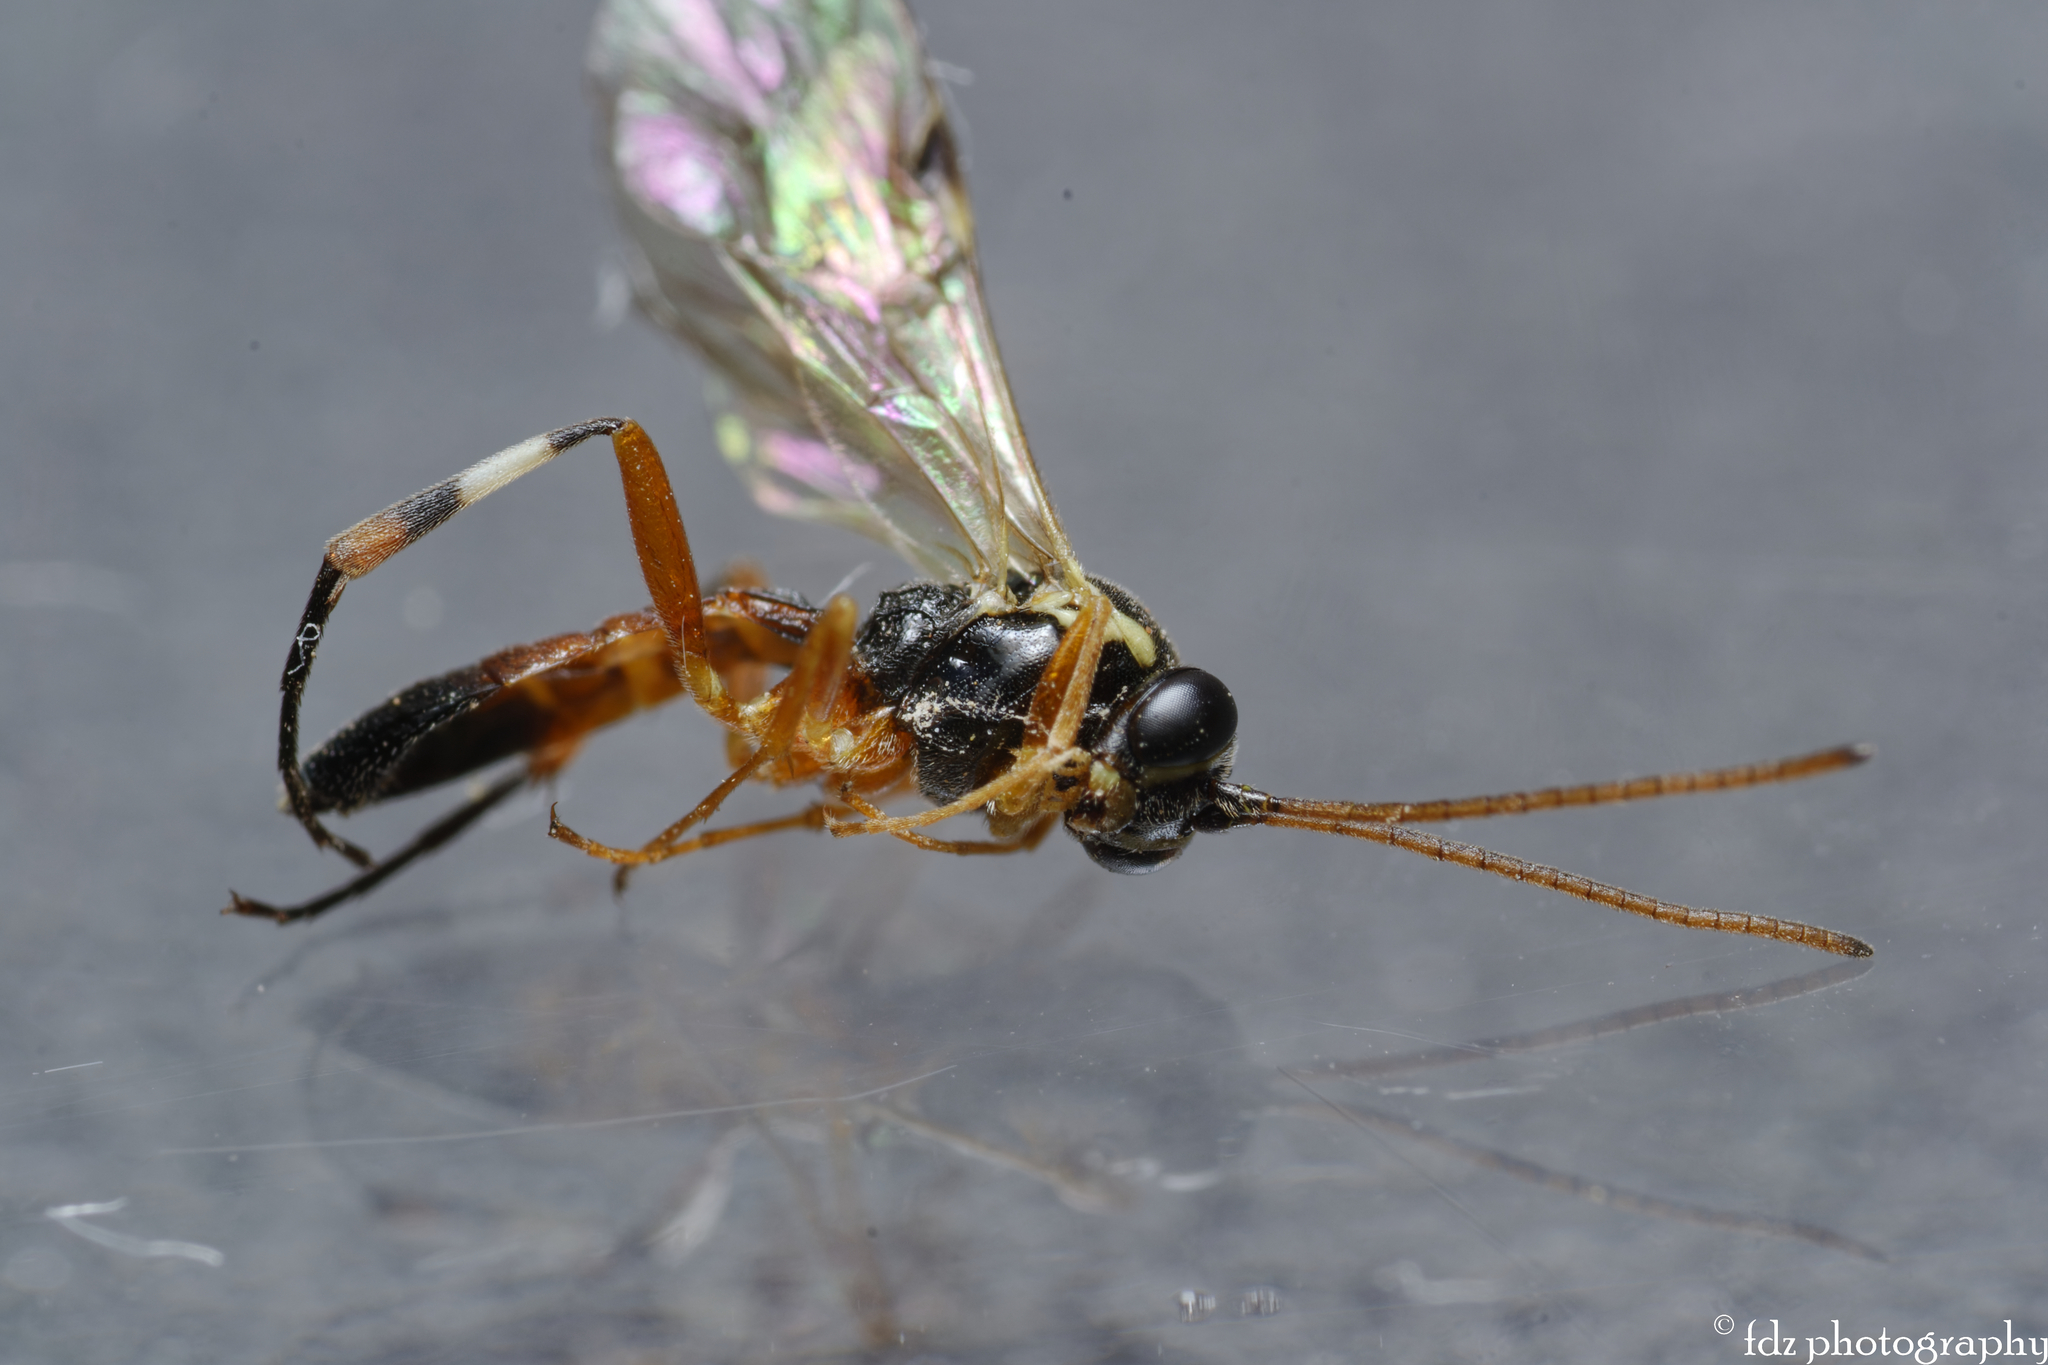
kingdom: Animalia
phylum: Arthropoda
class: Insecta
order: Hymenoptera
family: Ichneumonidae
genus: Diplazon
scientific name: Diplazon laetatorius
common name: Parasitoid wasp
